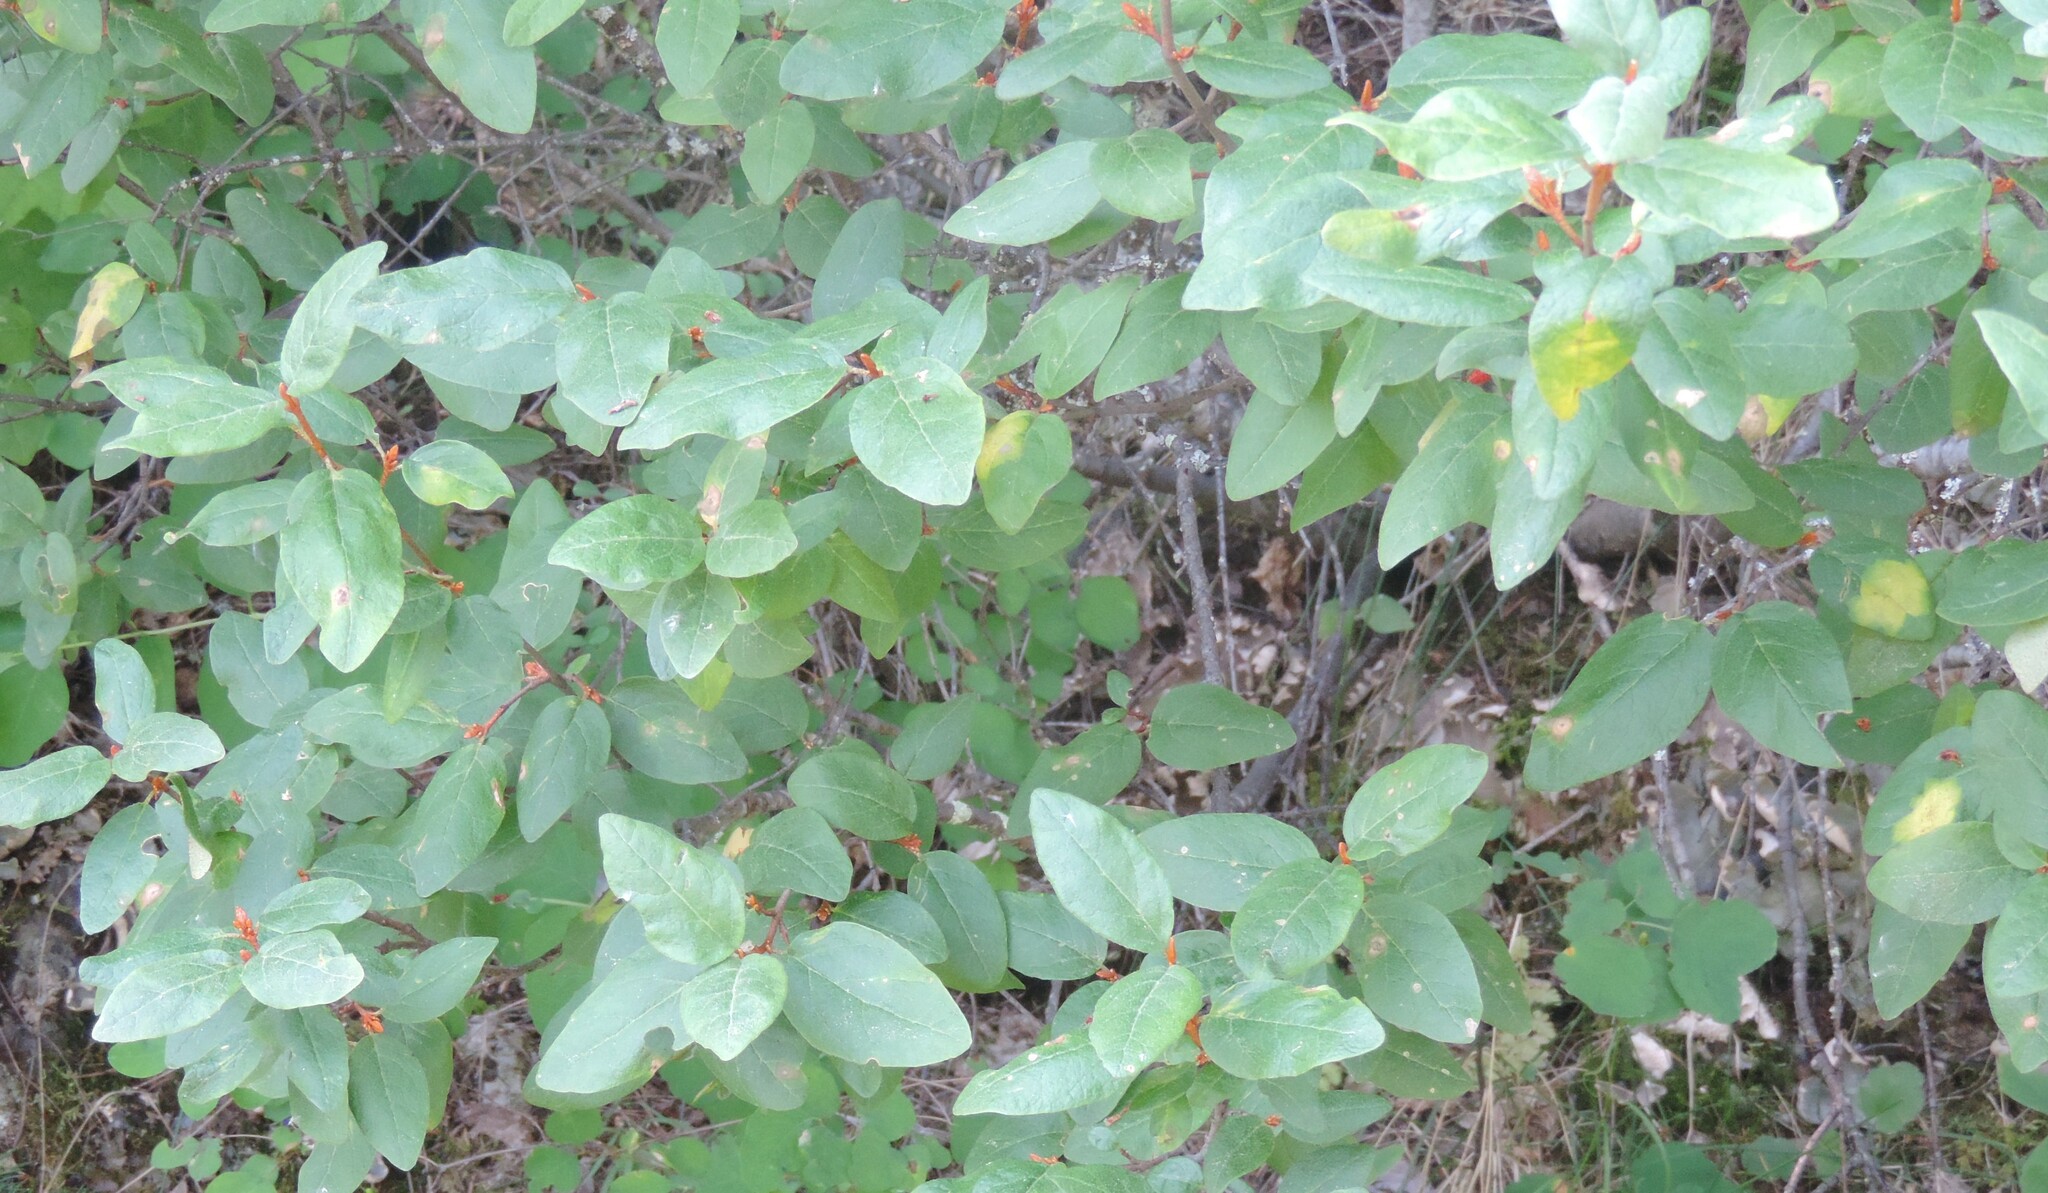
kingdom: Plantae
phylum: Tracheophyta
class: Magnoliopsida
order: Rosales
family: Elaeagnaceae
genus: Shepherdia
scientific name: Shepherdia canadensis
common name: Soapberry
